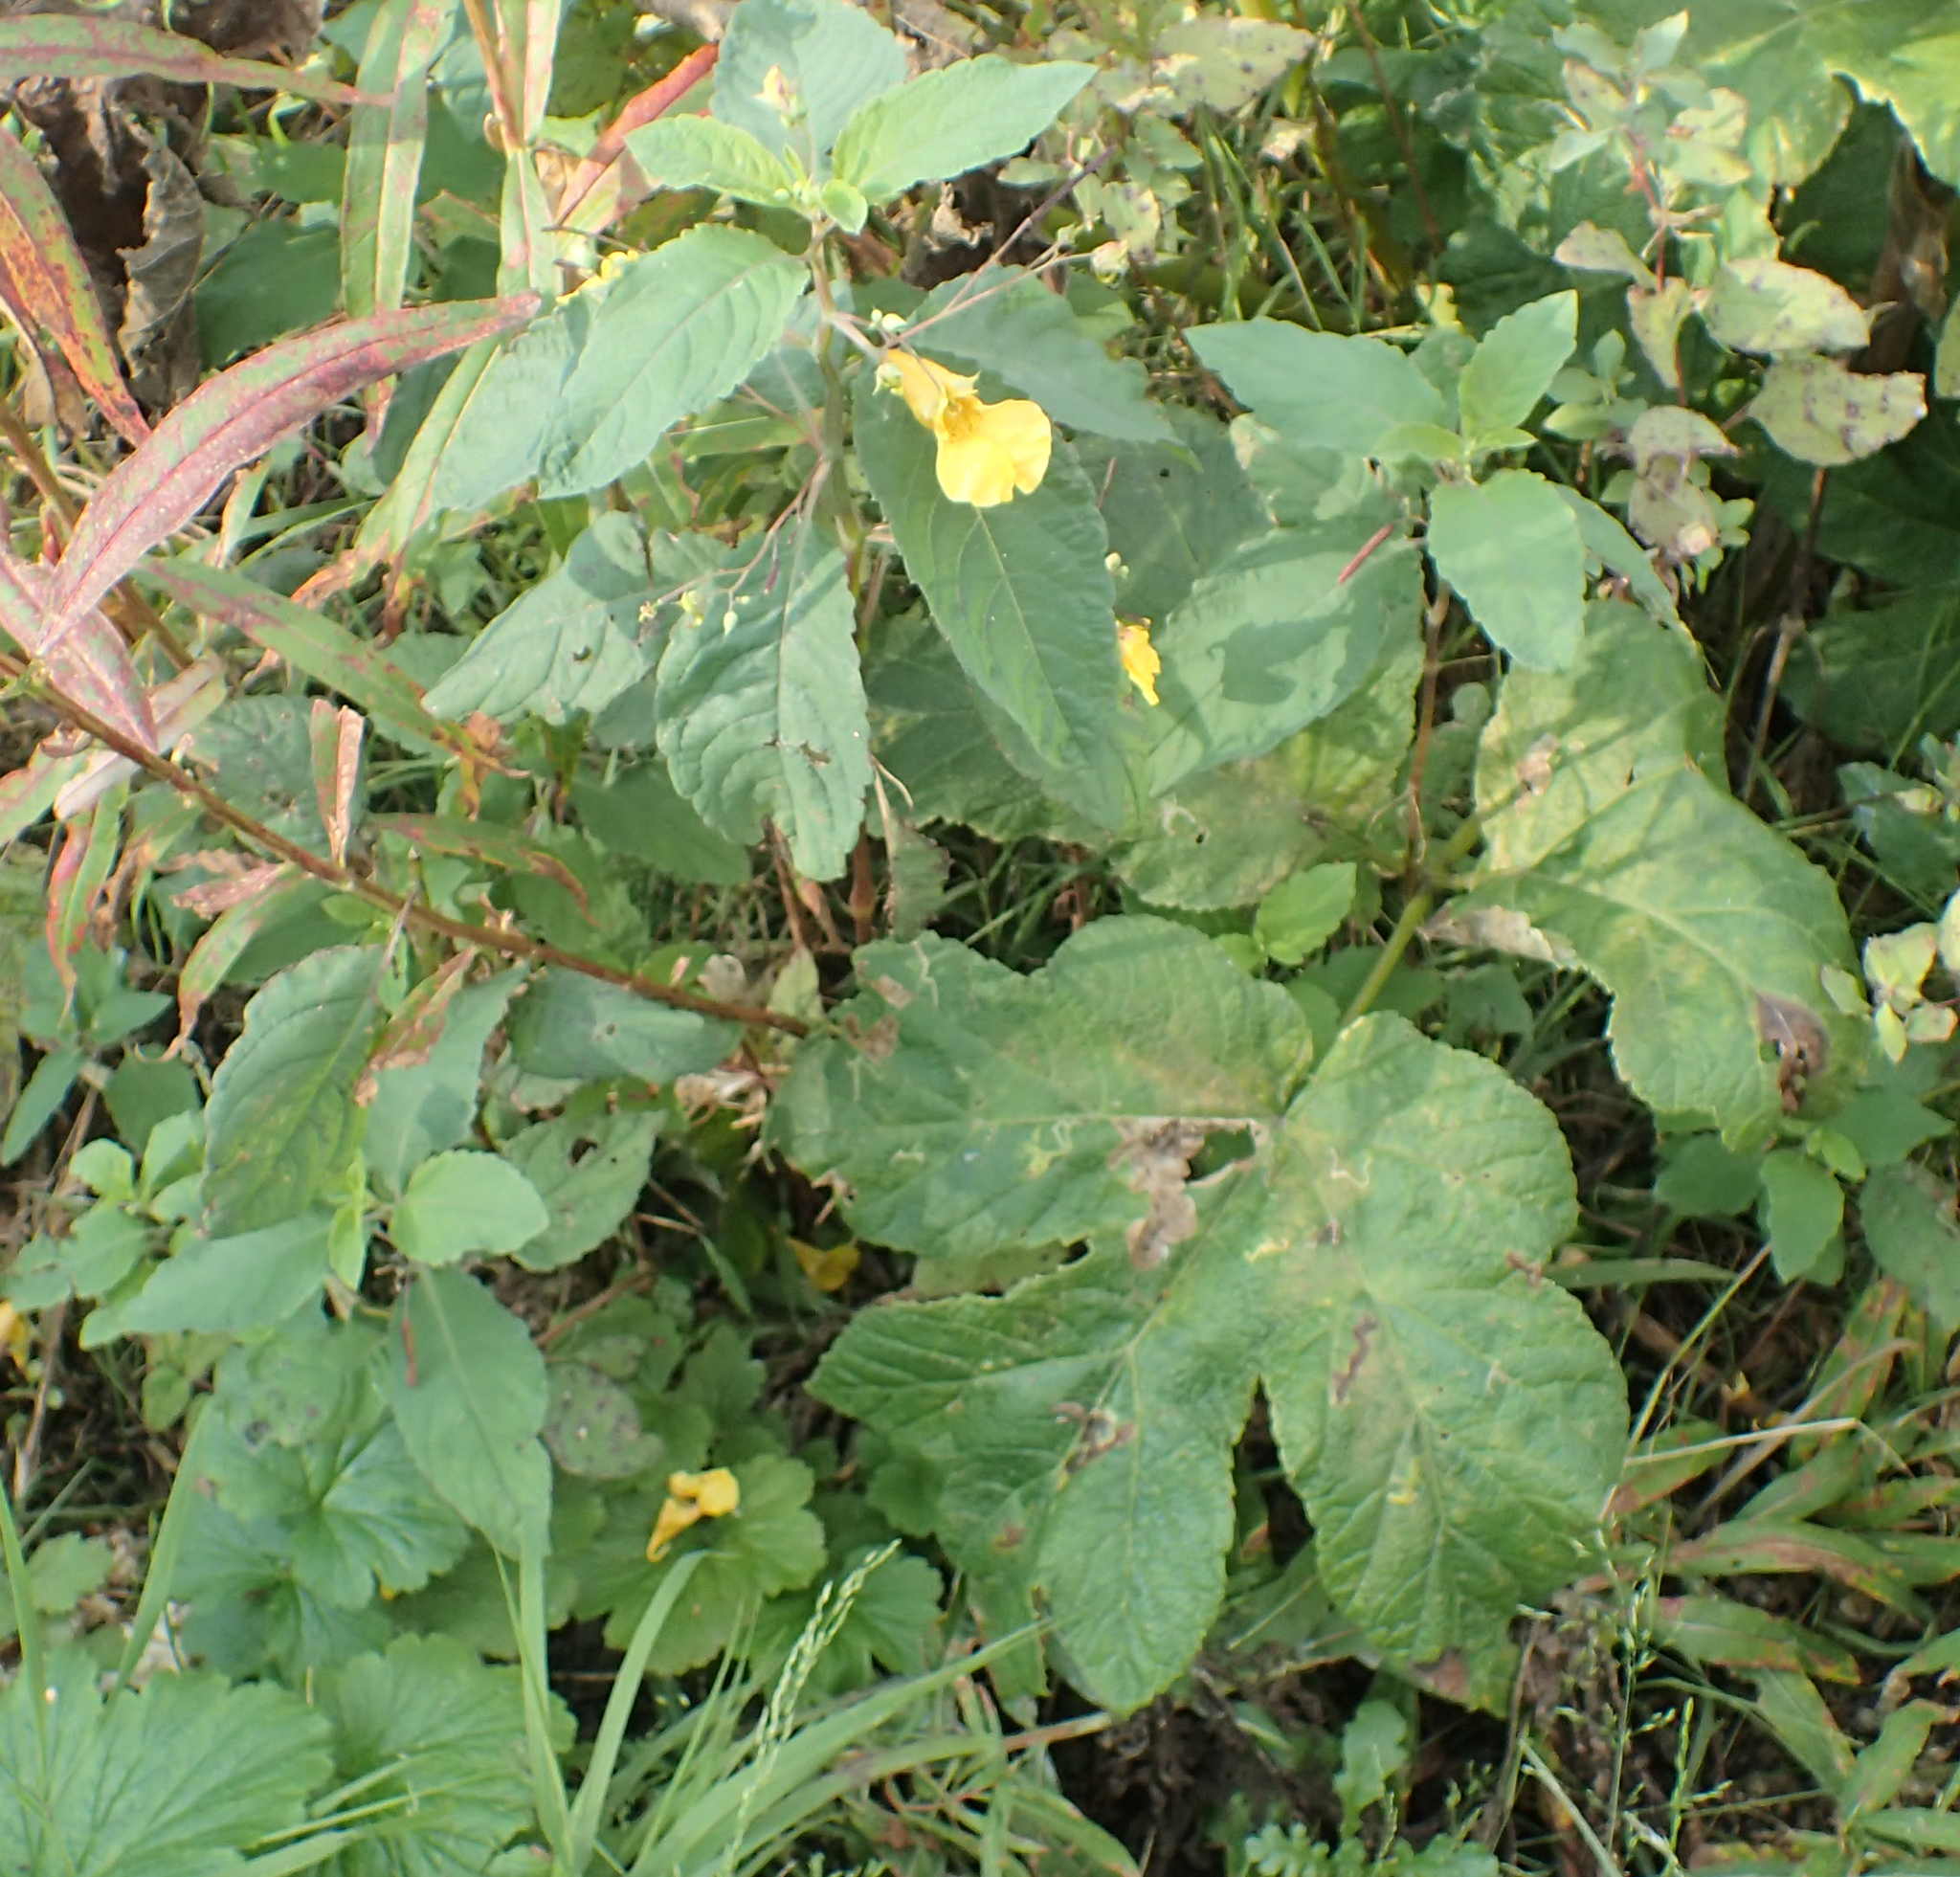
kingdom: Plantae
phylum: Tracheophyta
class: Magnoliopsida
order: Ericales
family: Balsaminaceae
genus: Impatiens
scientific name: Impatiens noli-tangere
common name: Touch-me-not balsam
